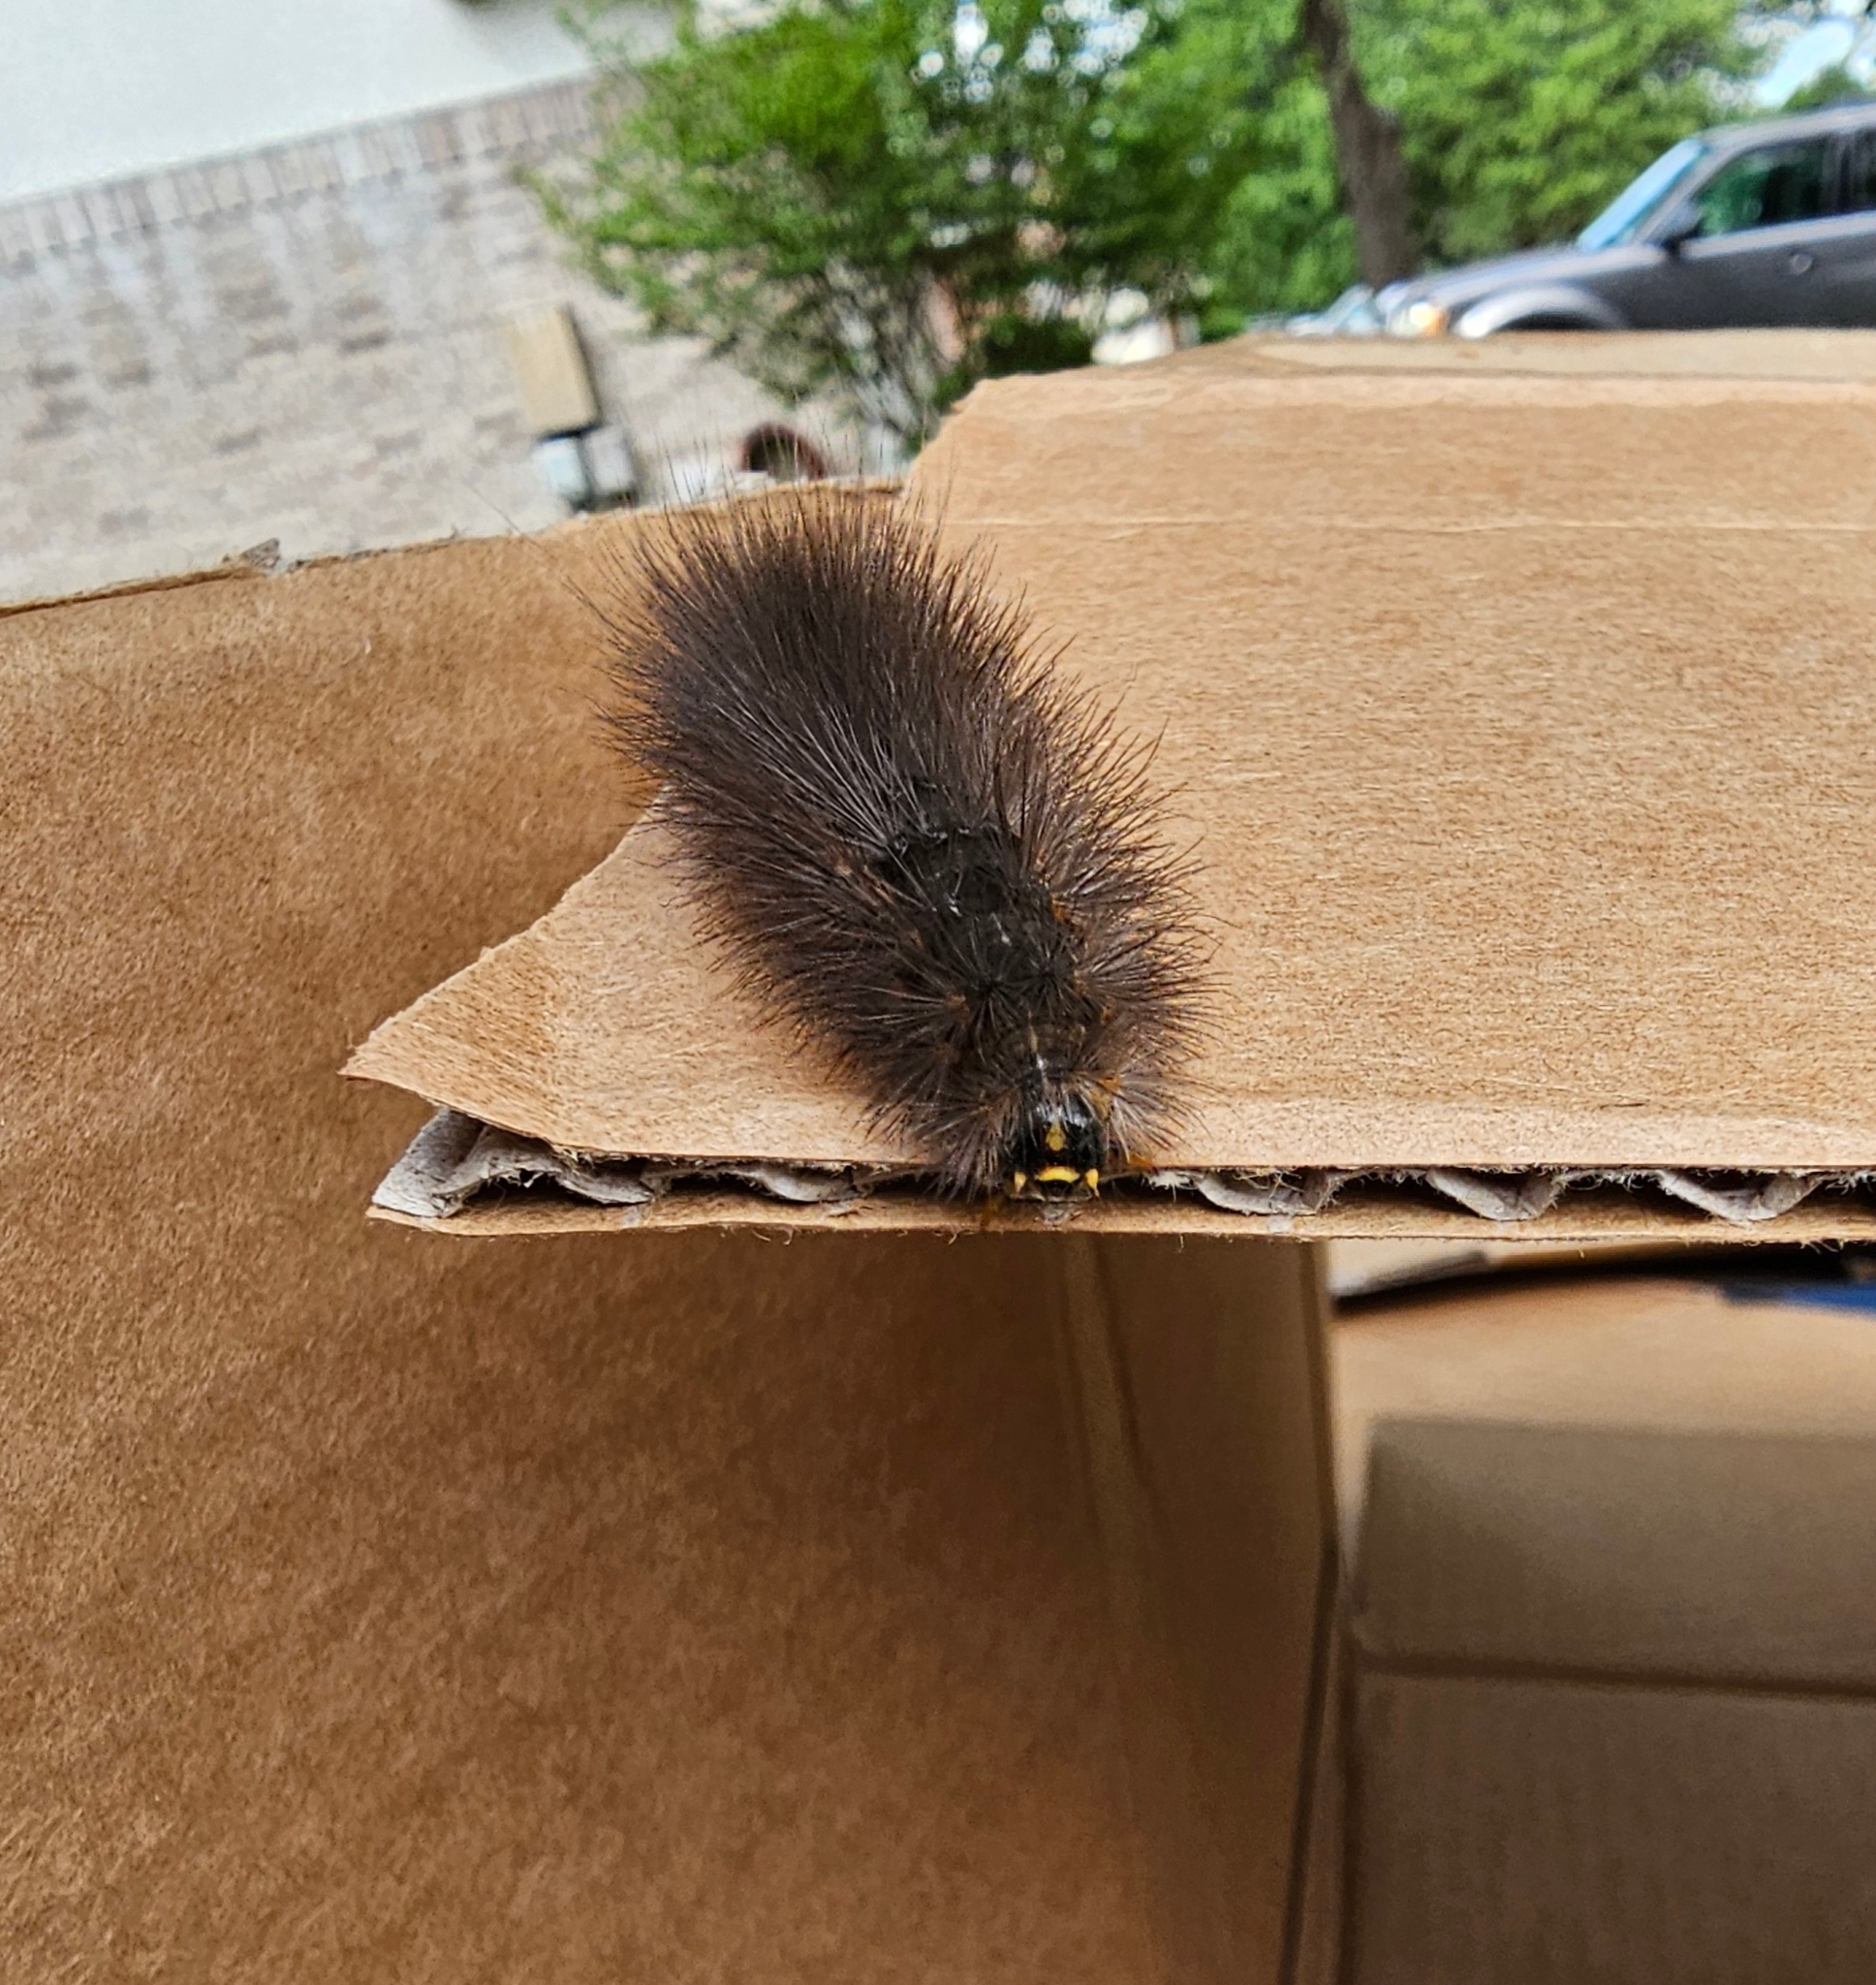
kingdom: Animalia
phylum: Arthropoda
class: Insecta
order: Lepidoptera
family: Erebidae
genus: Estigmene
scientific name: Estigmene acrea
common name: Salt marsh moth
